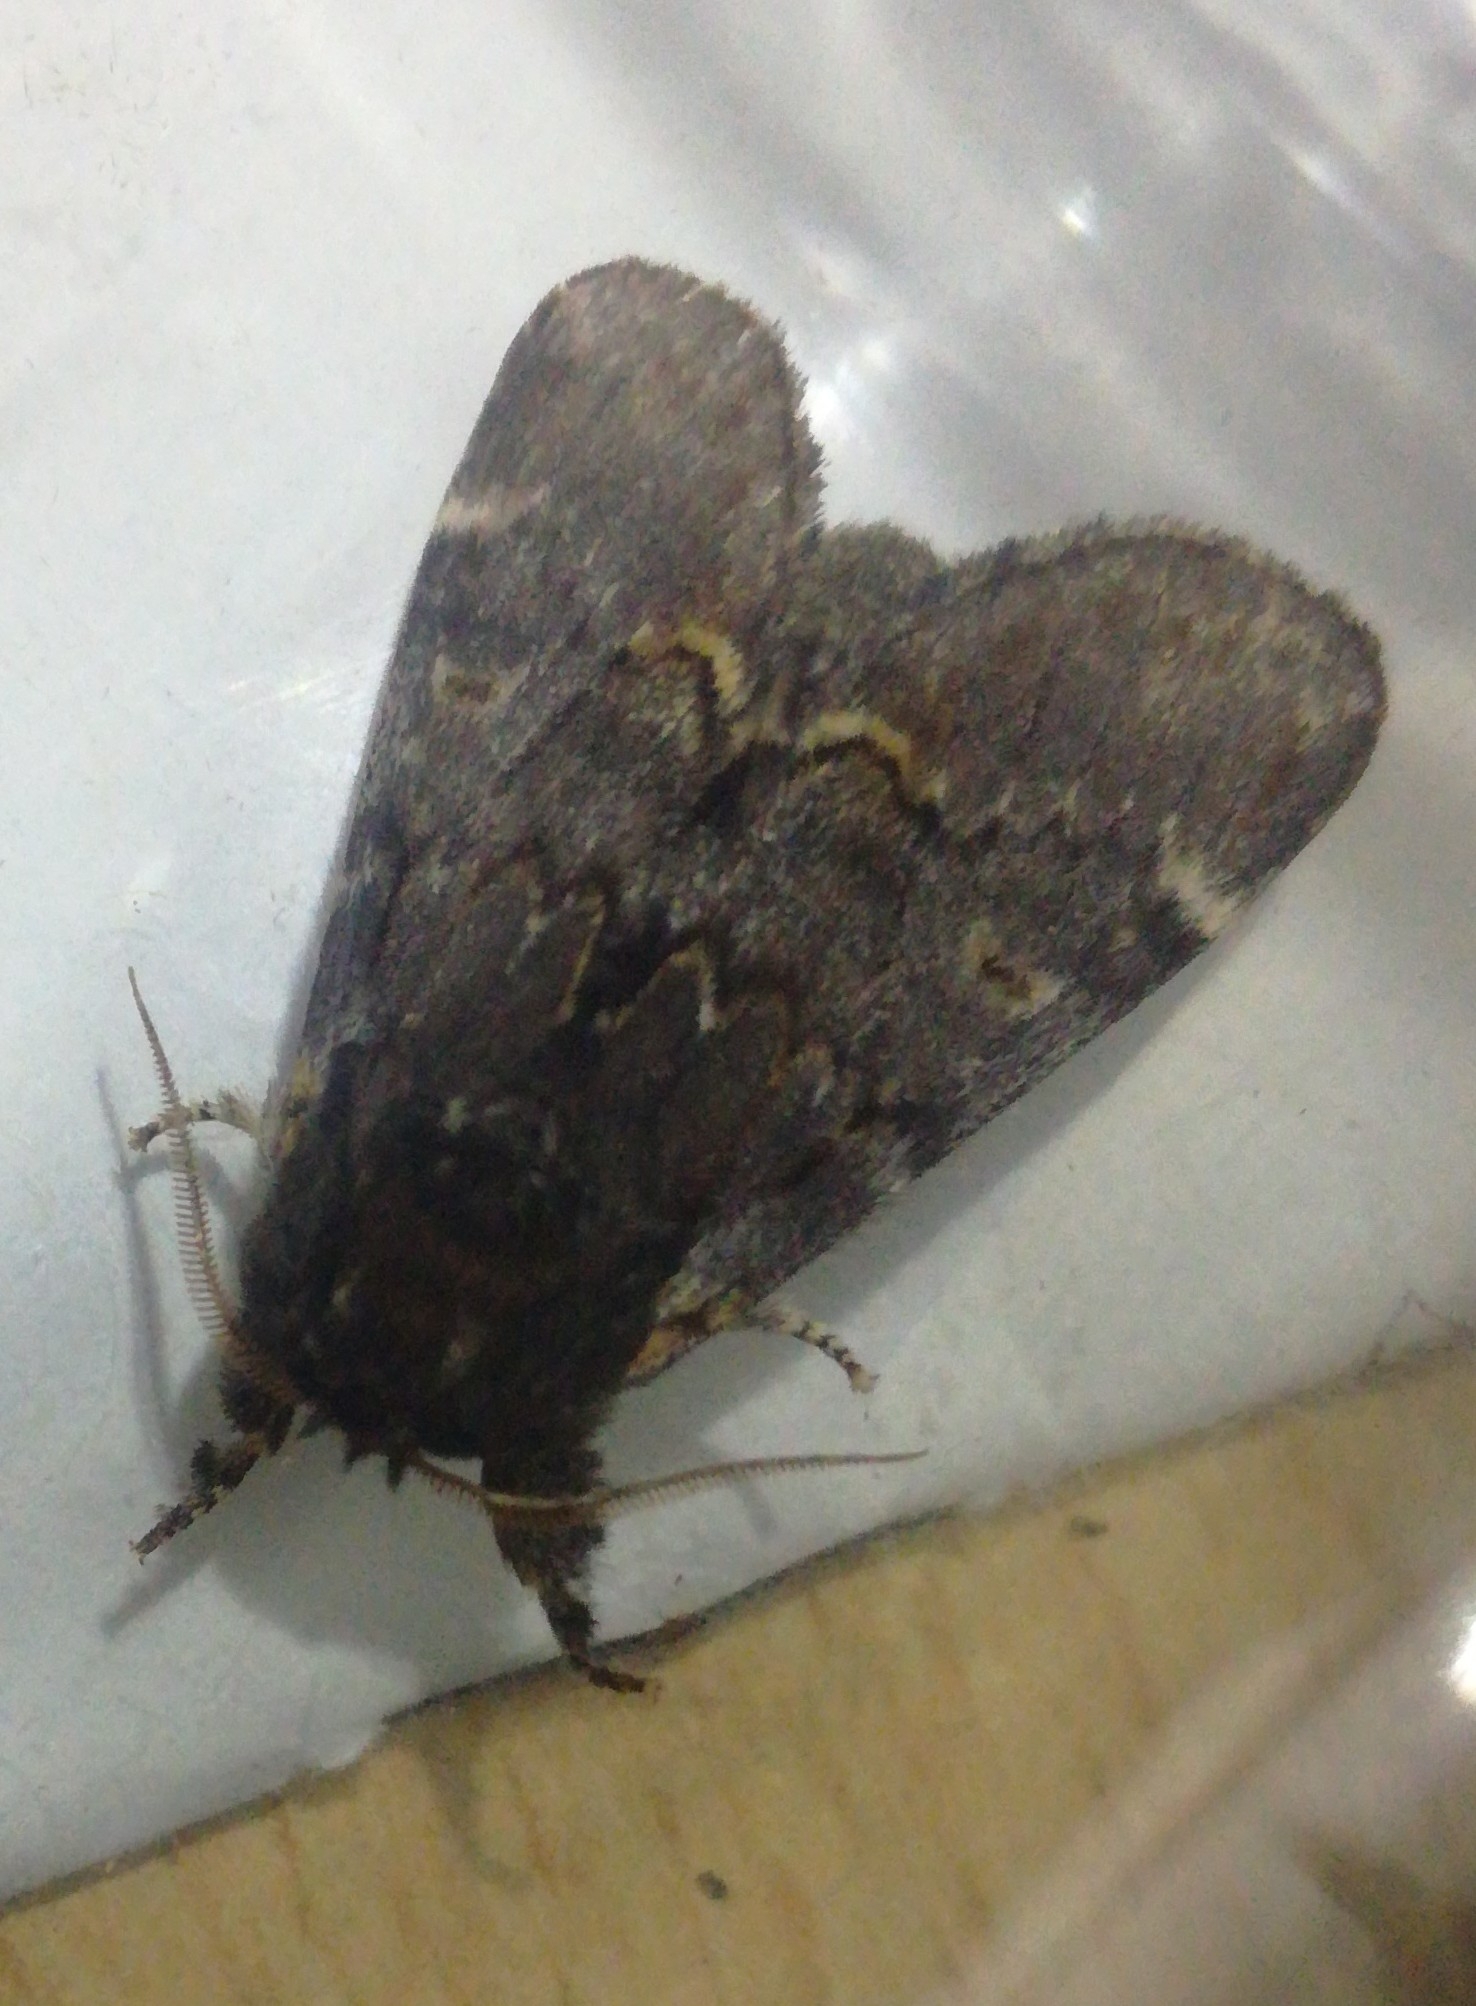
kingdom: Animalia
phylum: Arthropoda
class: Insecta
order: Lepidoptera
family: Notodontidae
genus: Notodonta
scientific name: Notodonta dromedarius
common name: Iron prominent
